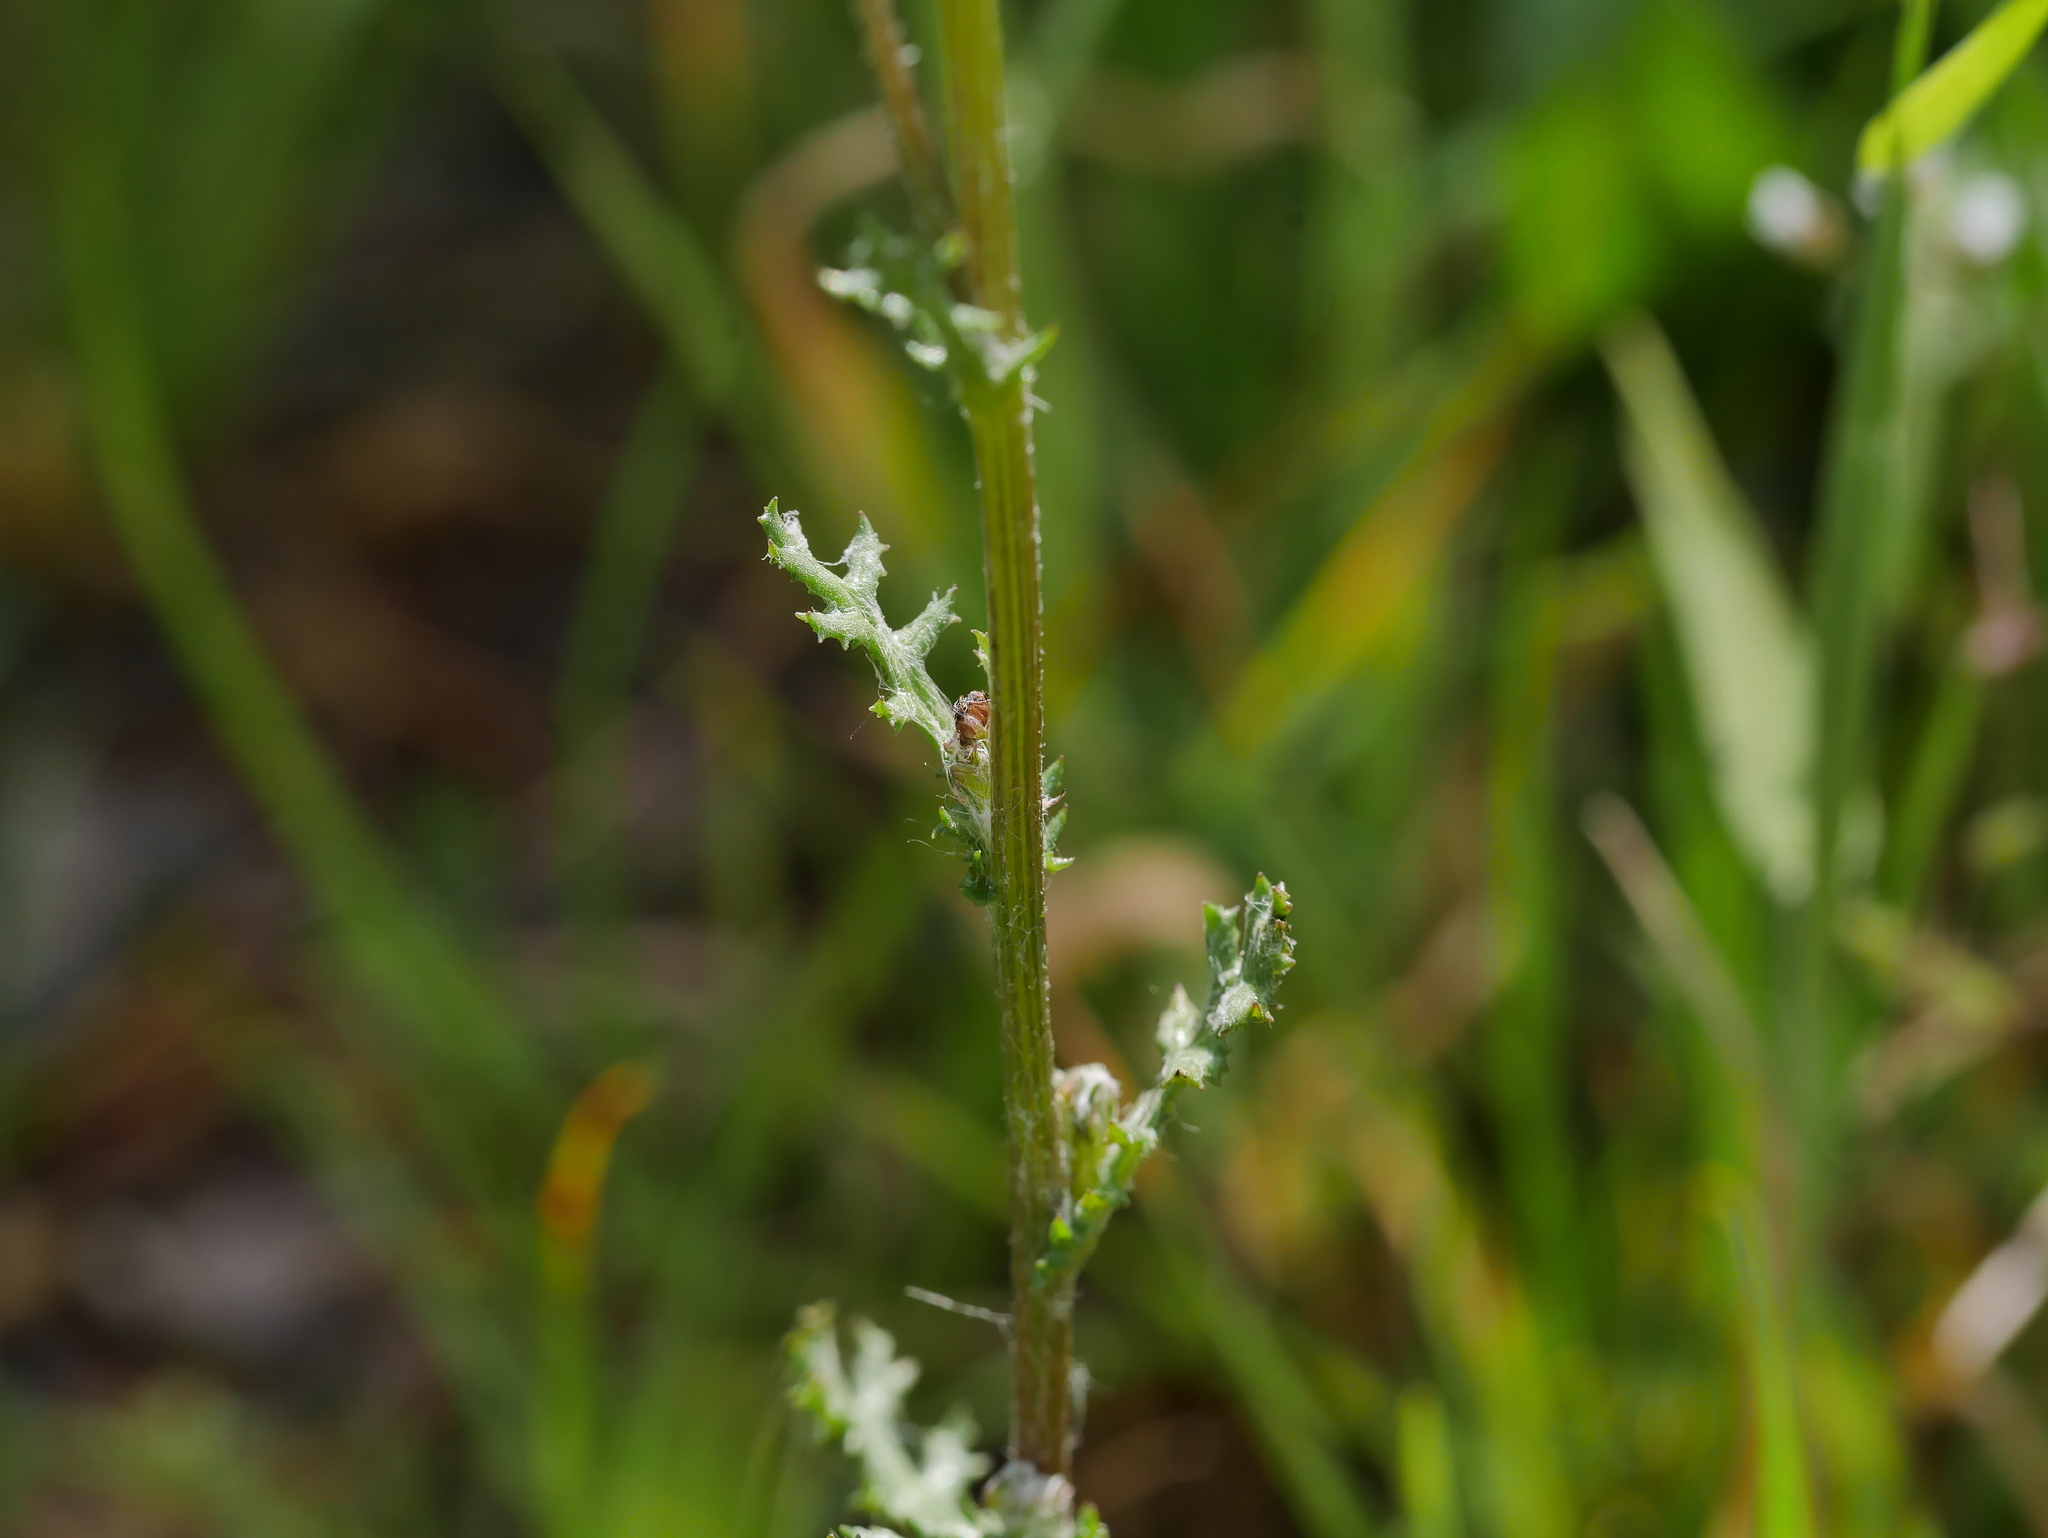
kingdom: Plantae
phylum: Tracheophyta
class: Magnoliopsida
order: Asterales
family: Asteraceae
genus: Senecio
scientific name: Senecio vulgaris
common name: Old-man-in-the-spring
